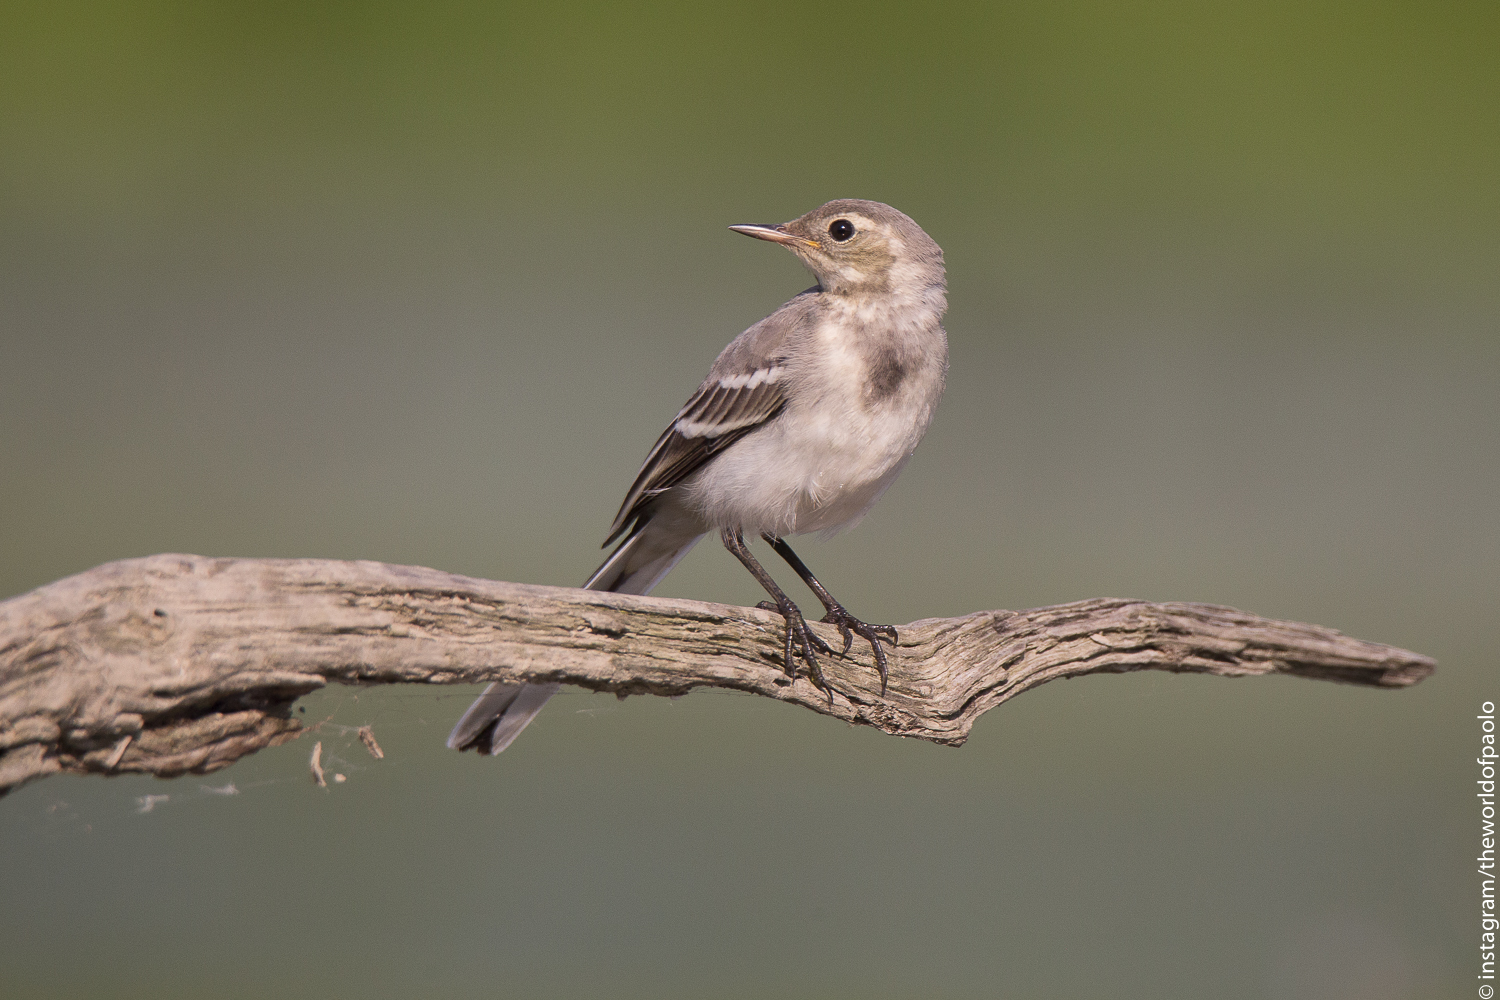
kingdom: Animalia
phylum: Chordata
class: Aves
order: Passeriformes
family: Motacillidae
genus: Motacilla
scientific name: Motacilla alba
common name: White wagtail
